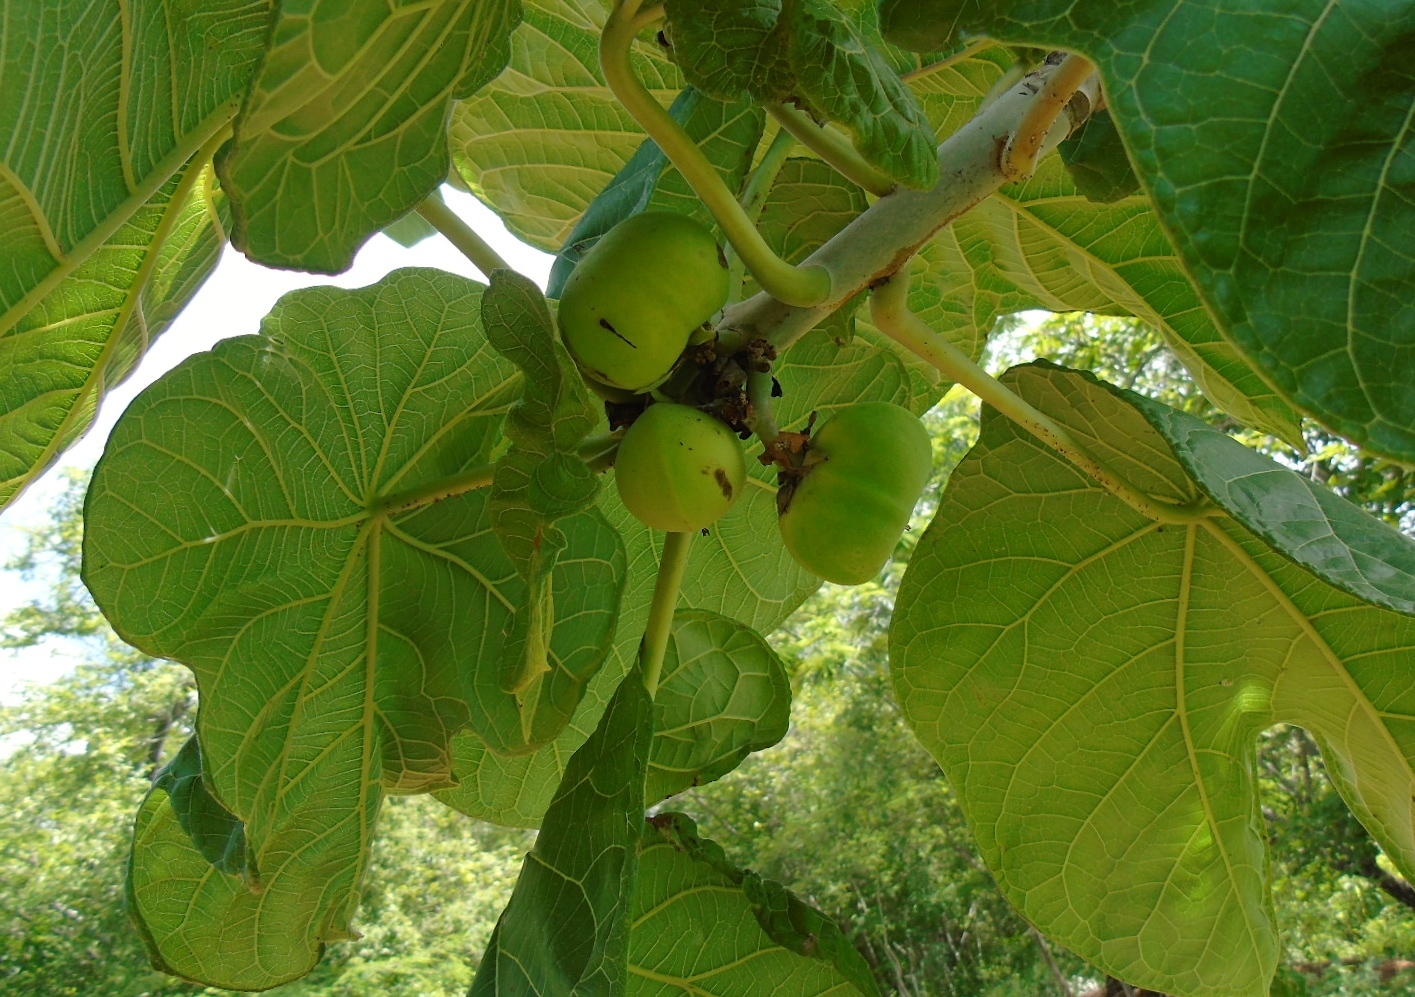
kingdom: Plantae
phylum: Tracheophyta
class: Magnoliopsida
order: Malpighiales
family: Euphorbiaceae
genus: Jatropha
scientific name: Jatropha peltata
